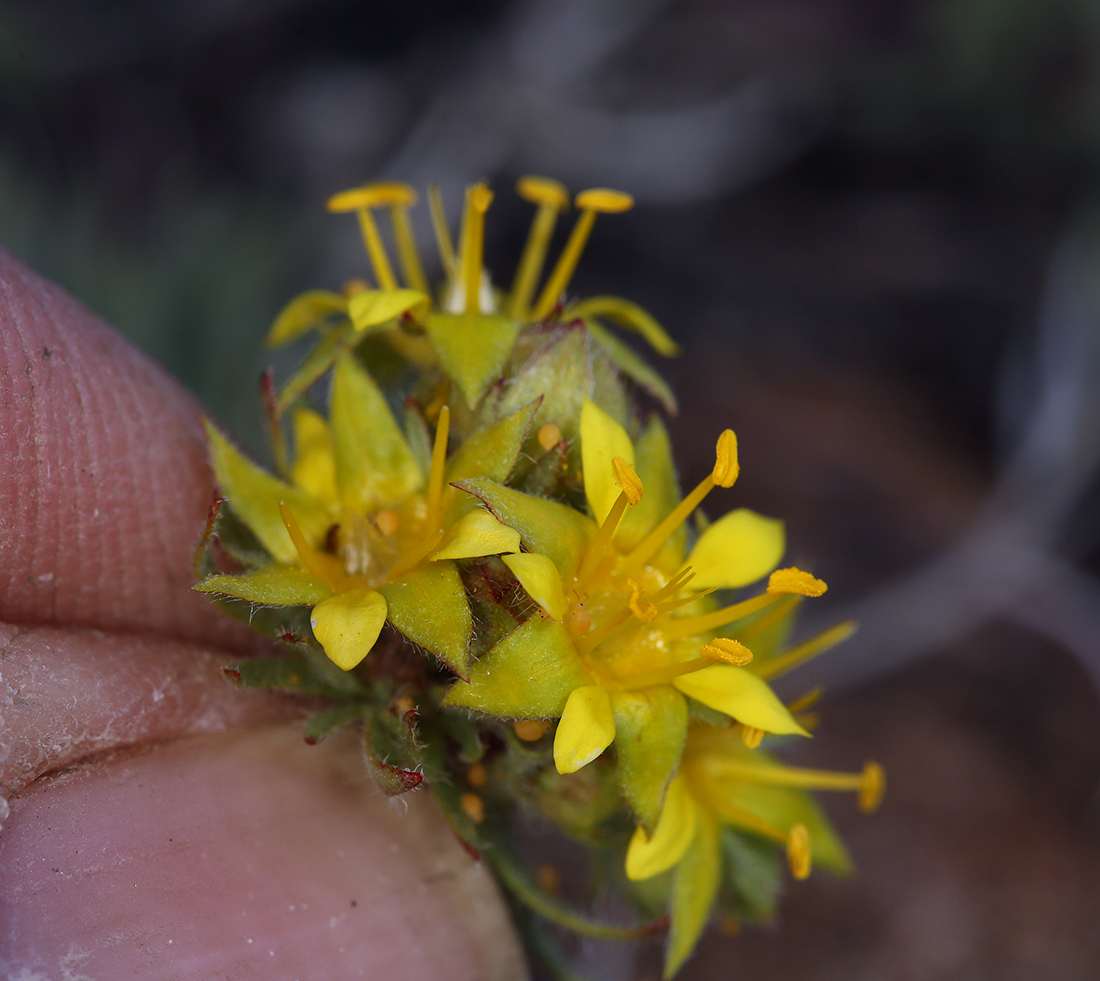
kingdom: Plantae
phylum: Tracheophyta
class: Magnoliopsida
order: Rosales
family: Rosaceae
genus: Potentilla
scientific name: Potentilla webberi
